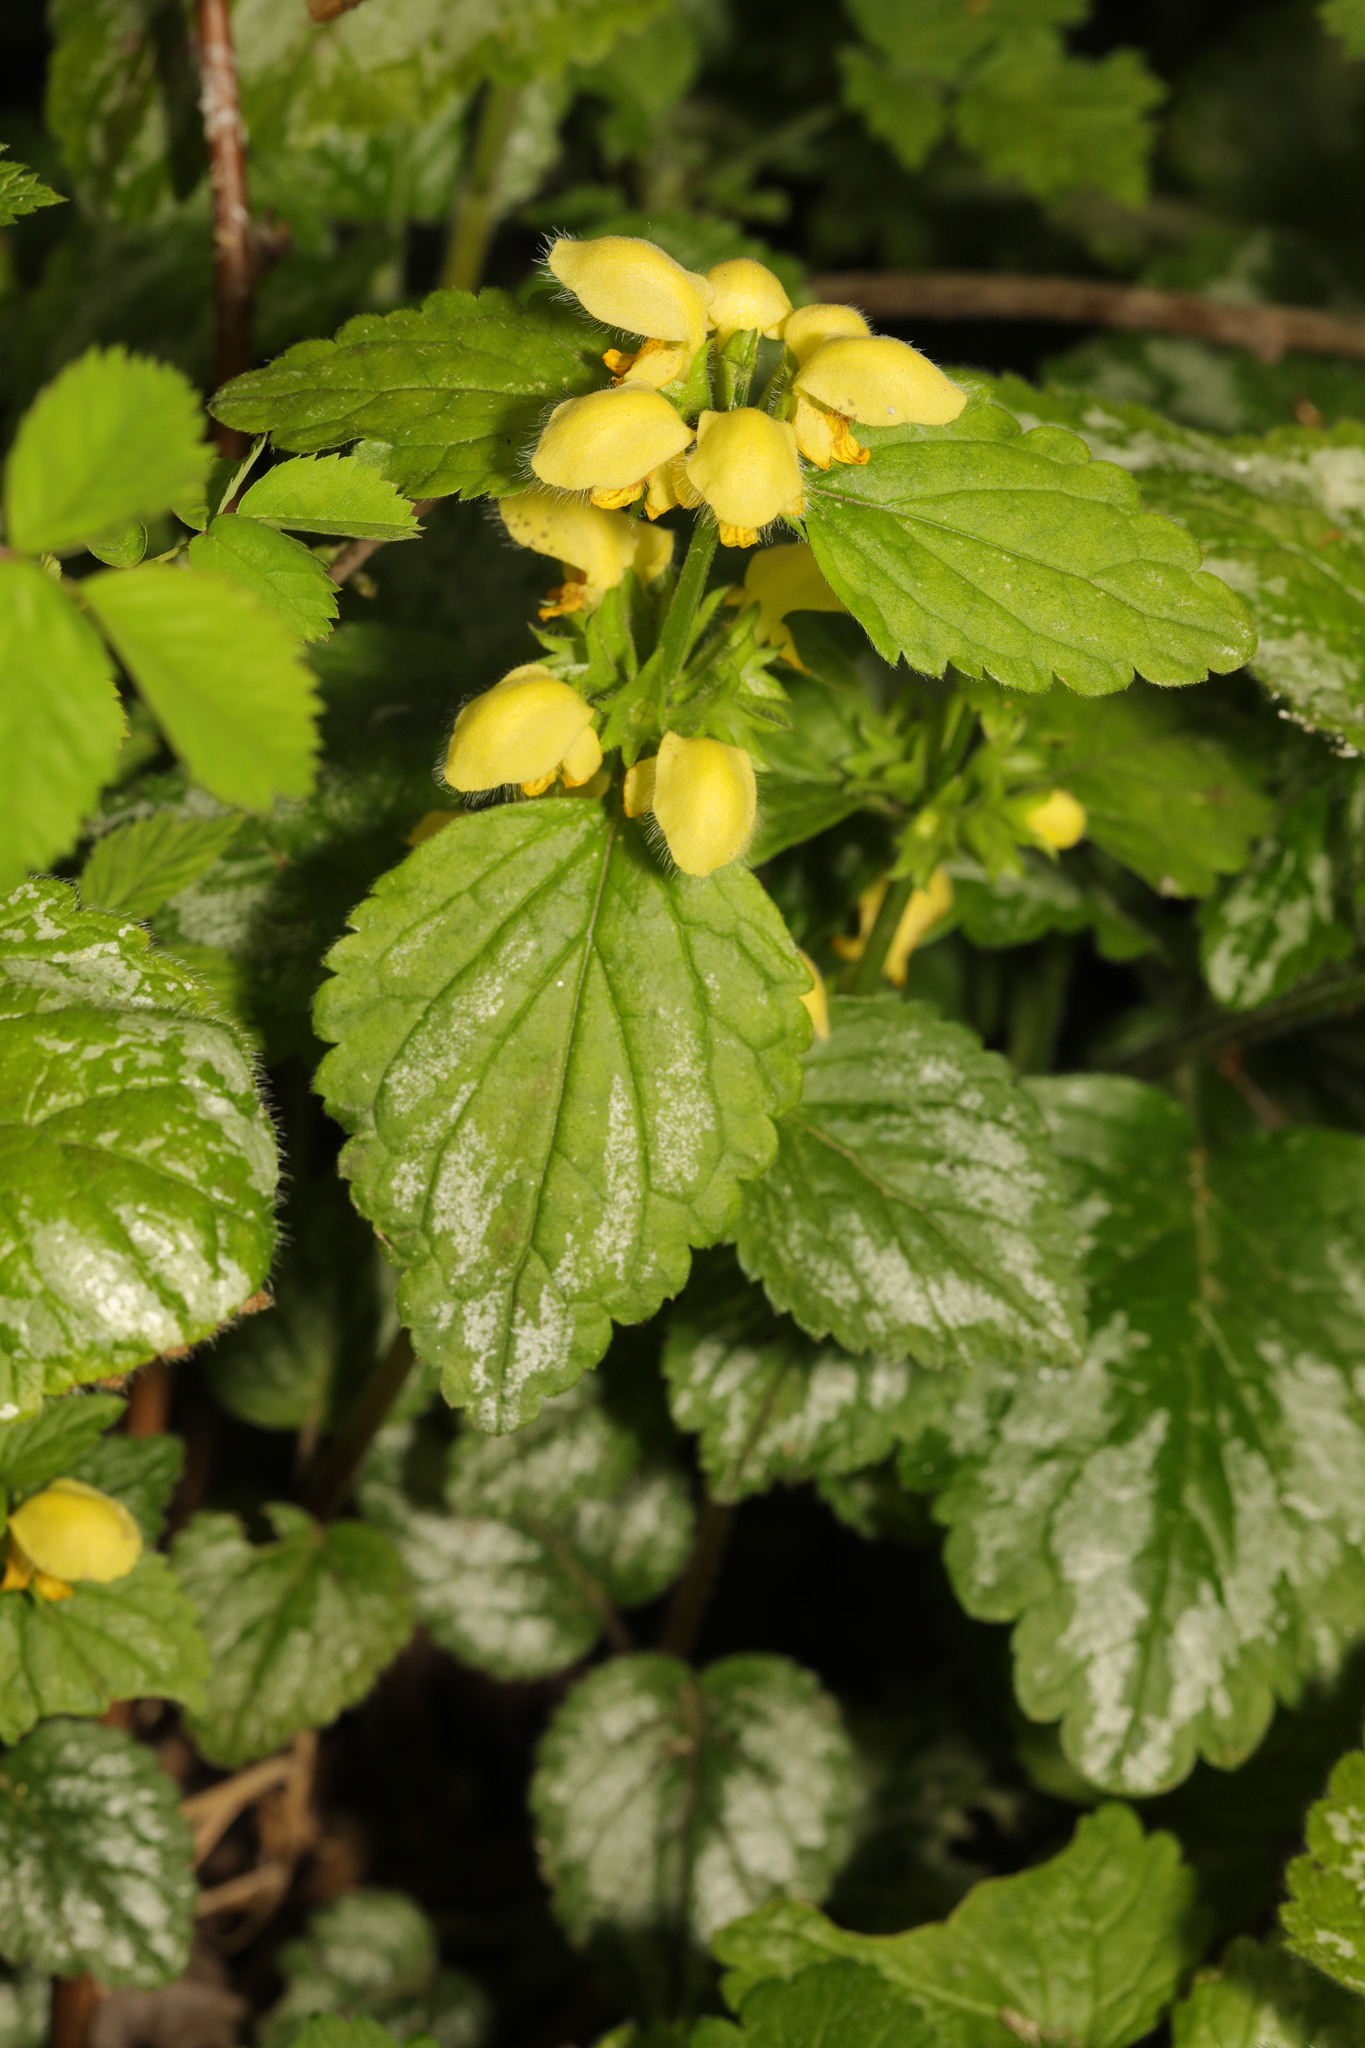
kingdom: Plantae
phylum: Tracheophyta
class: Magnoliopsida
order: Lamiales
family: Lamiaceae
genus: Lamium
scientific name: Lamium galeobdolon
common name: Yellow archangel
